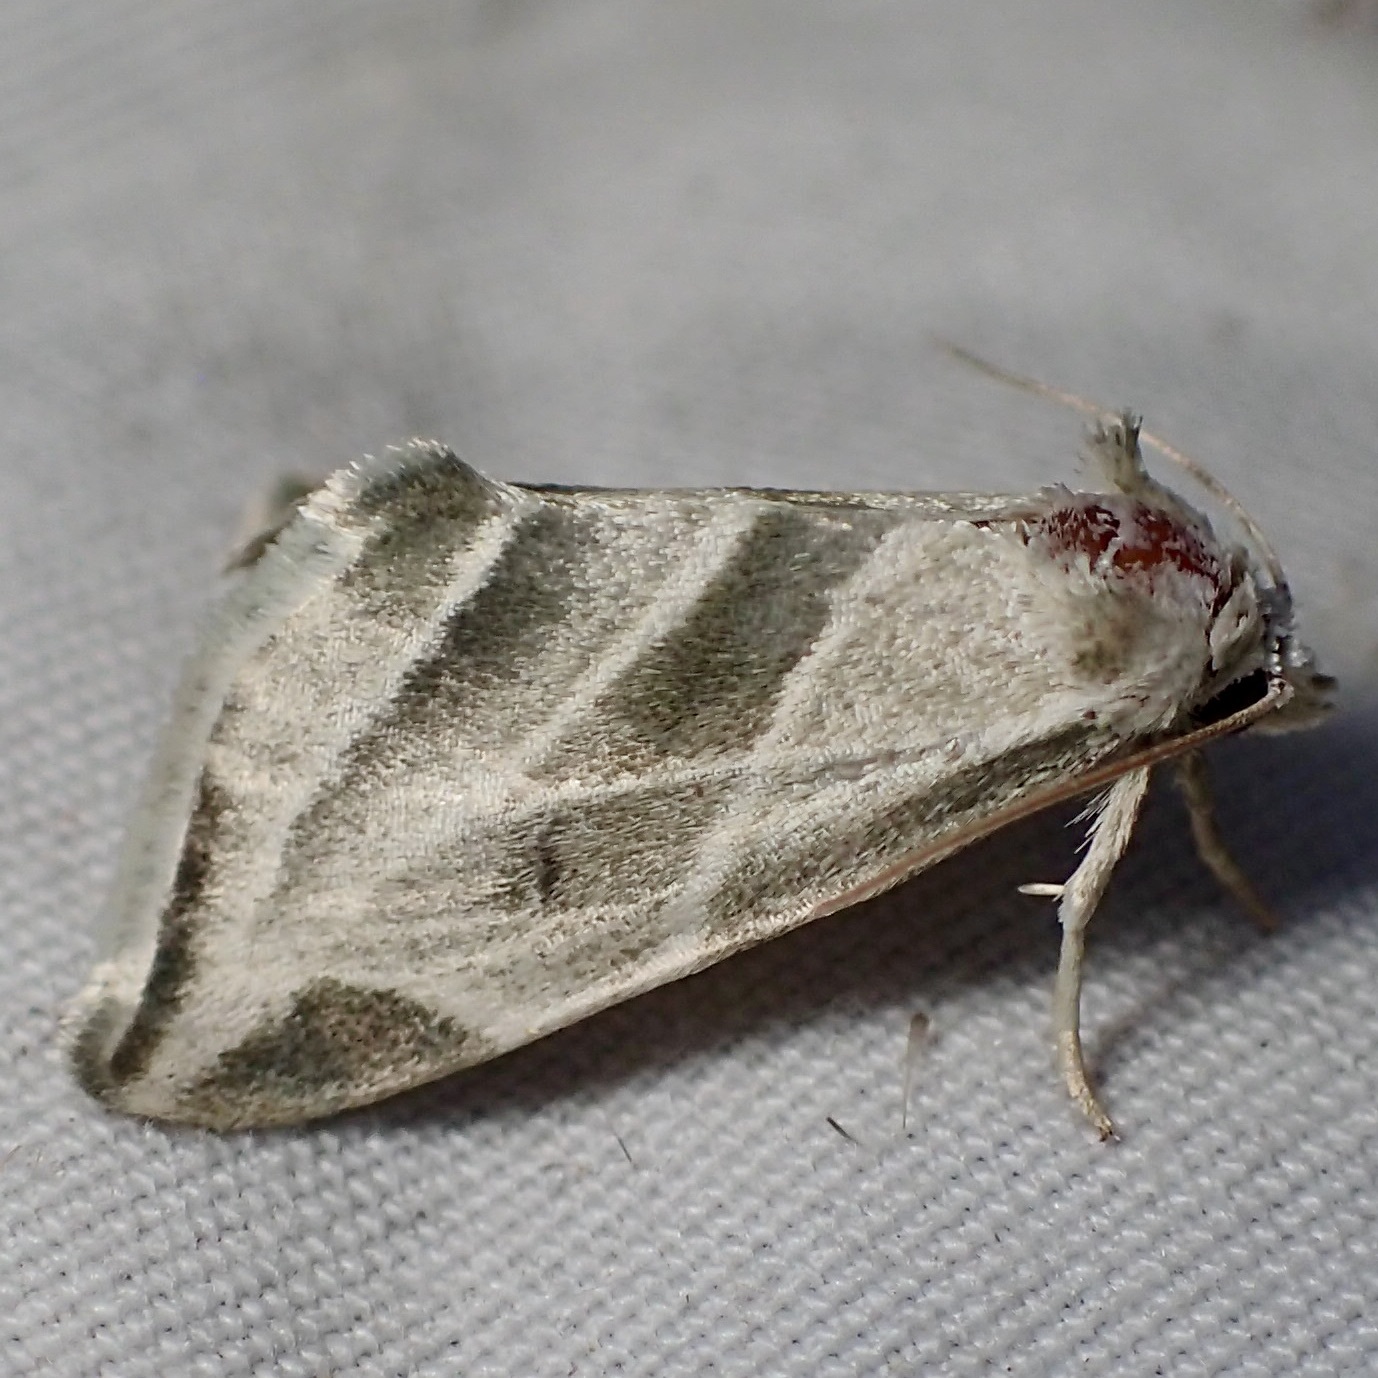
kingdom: Animalia
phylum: Arthropoda
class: Insecta
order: Lepidoptera
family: Noctuidae
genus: Plagiomimicus
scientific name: Plagiomimicus tepperi
